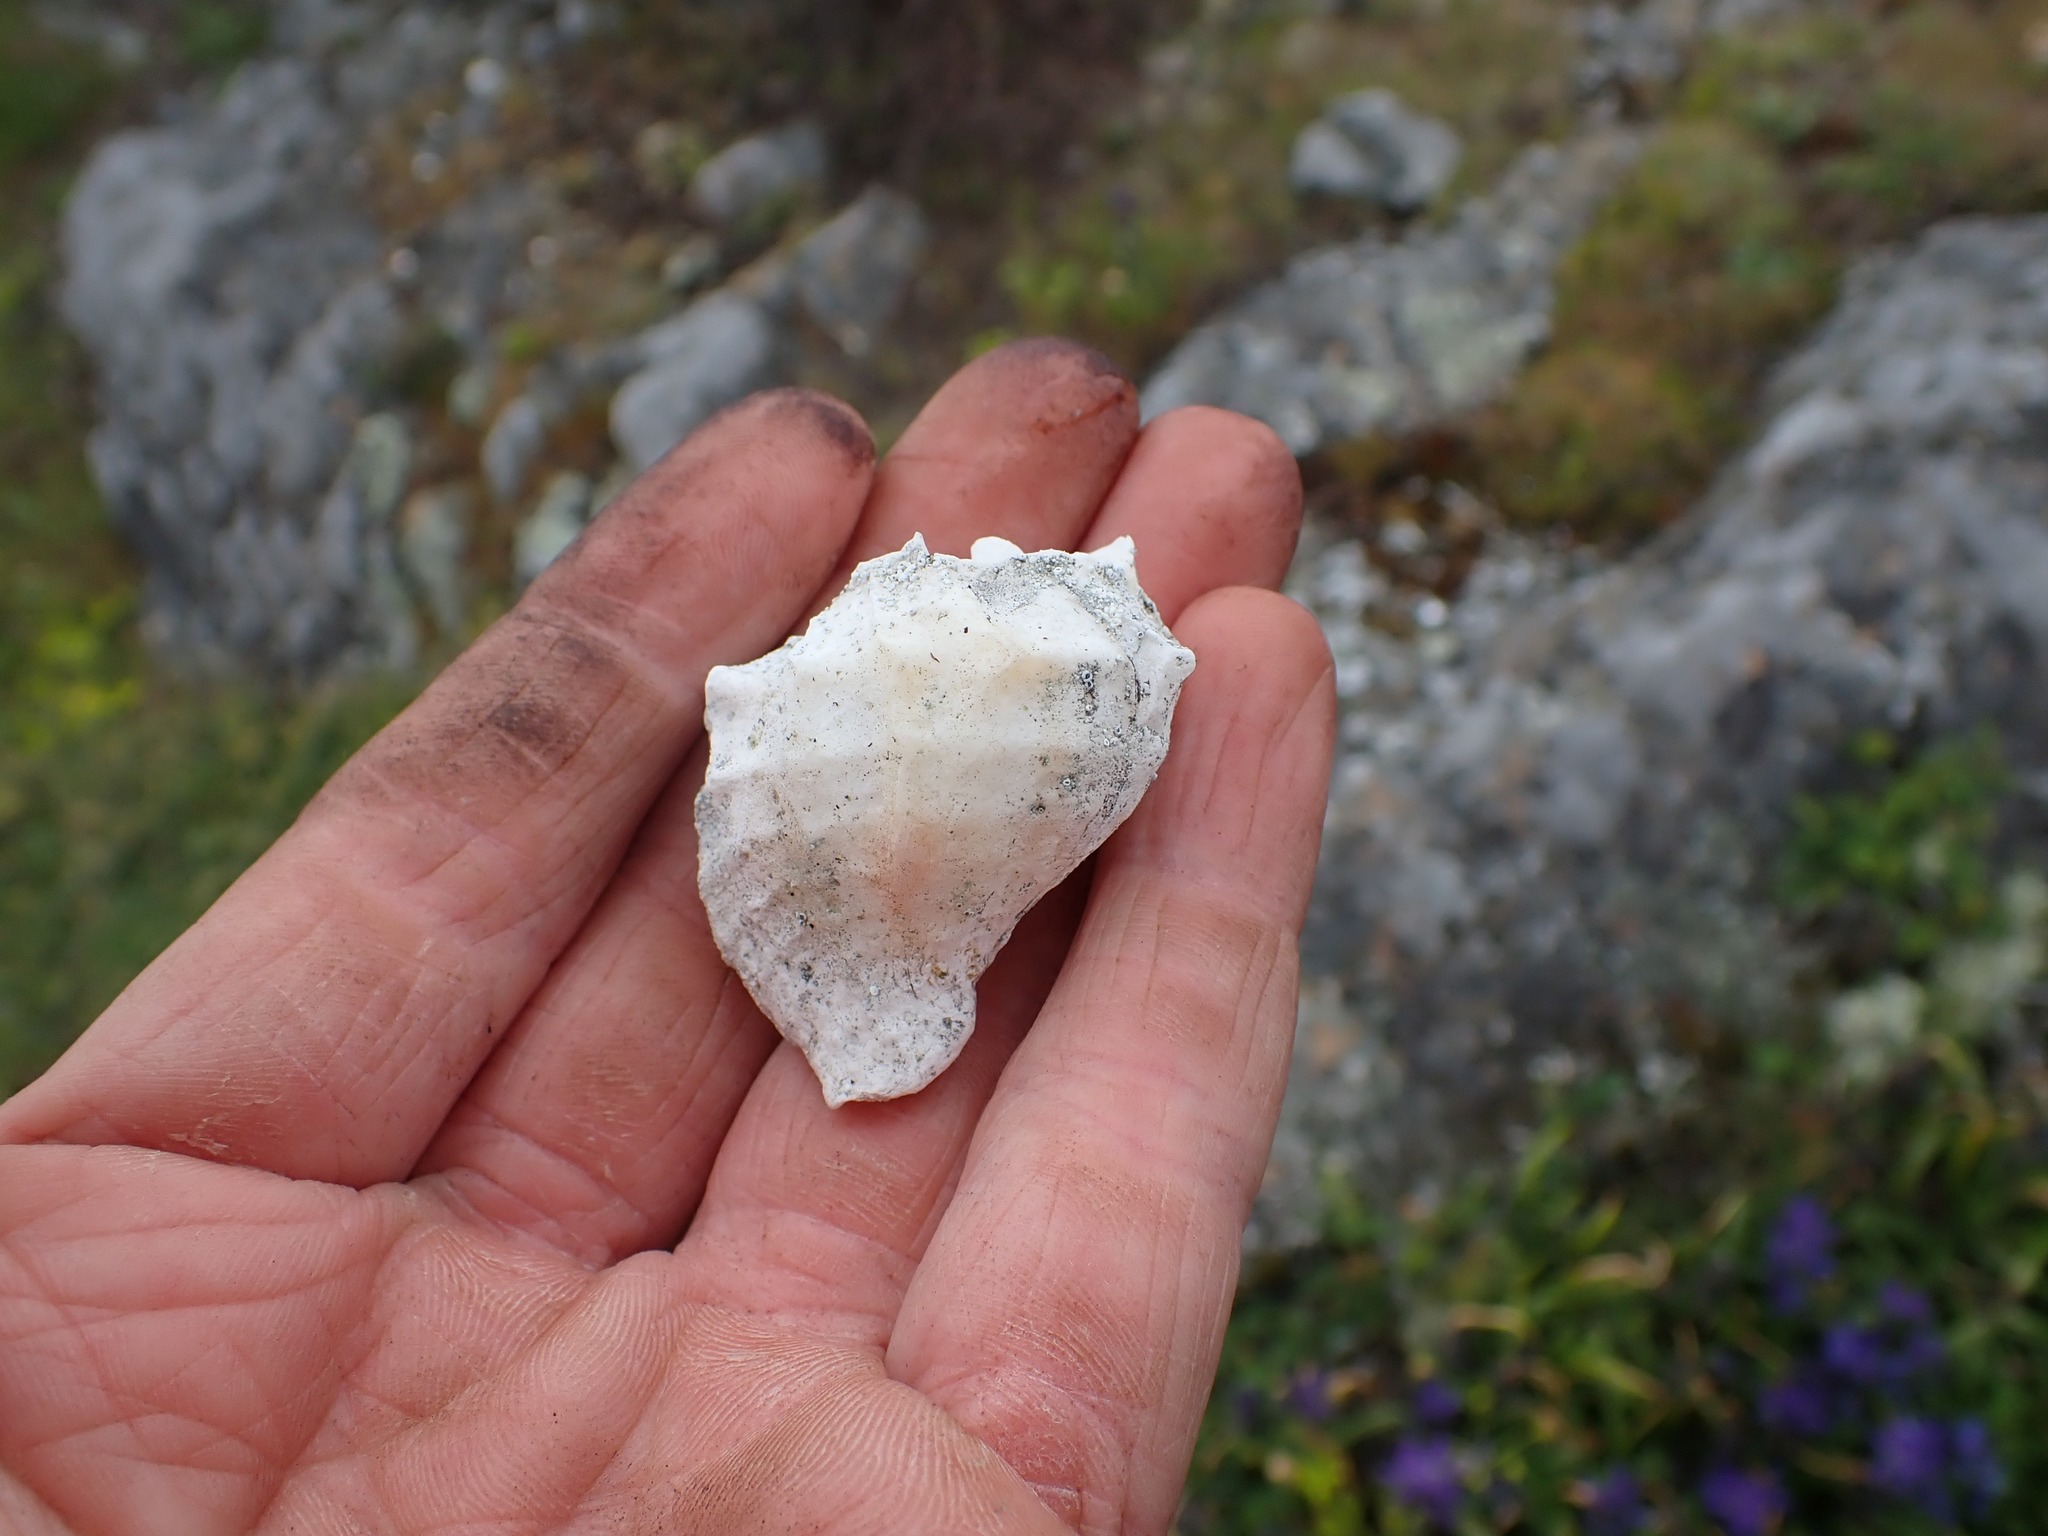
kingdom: Animalia
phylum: Mollusca
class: Gastropoda
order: Neogastropoda
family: Muricidae
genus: Nucella
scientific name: Nucella lamellosa
